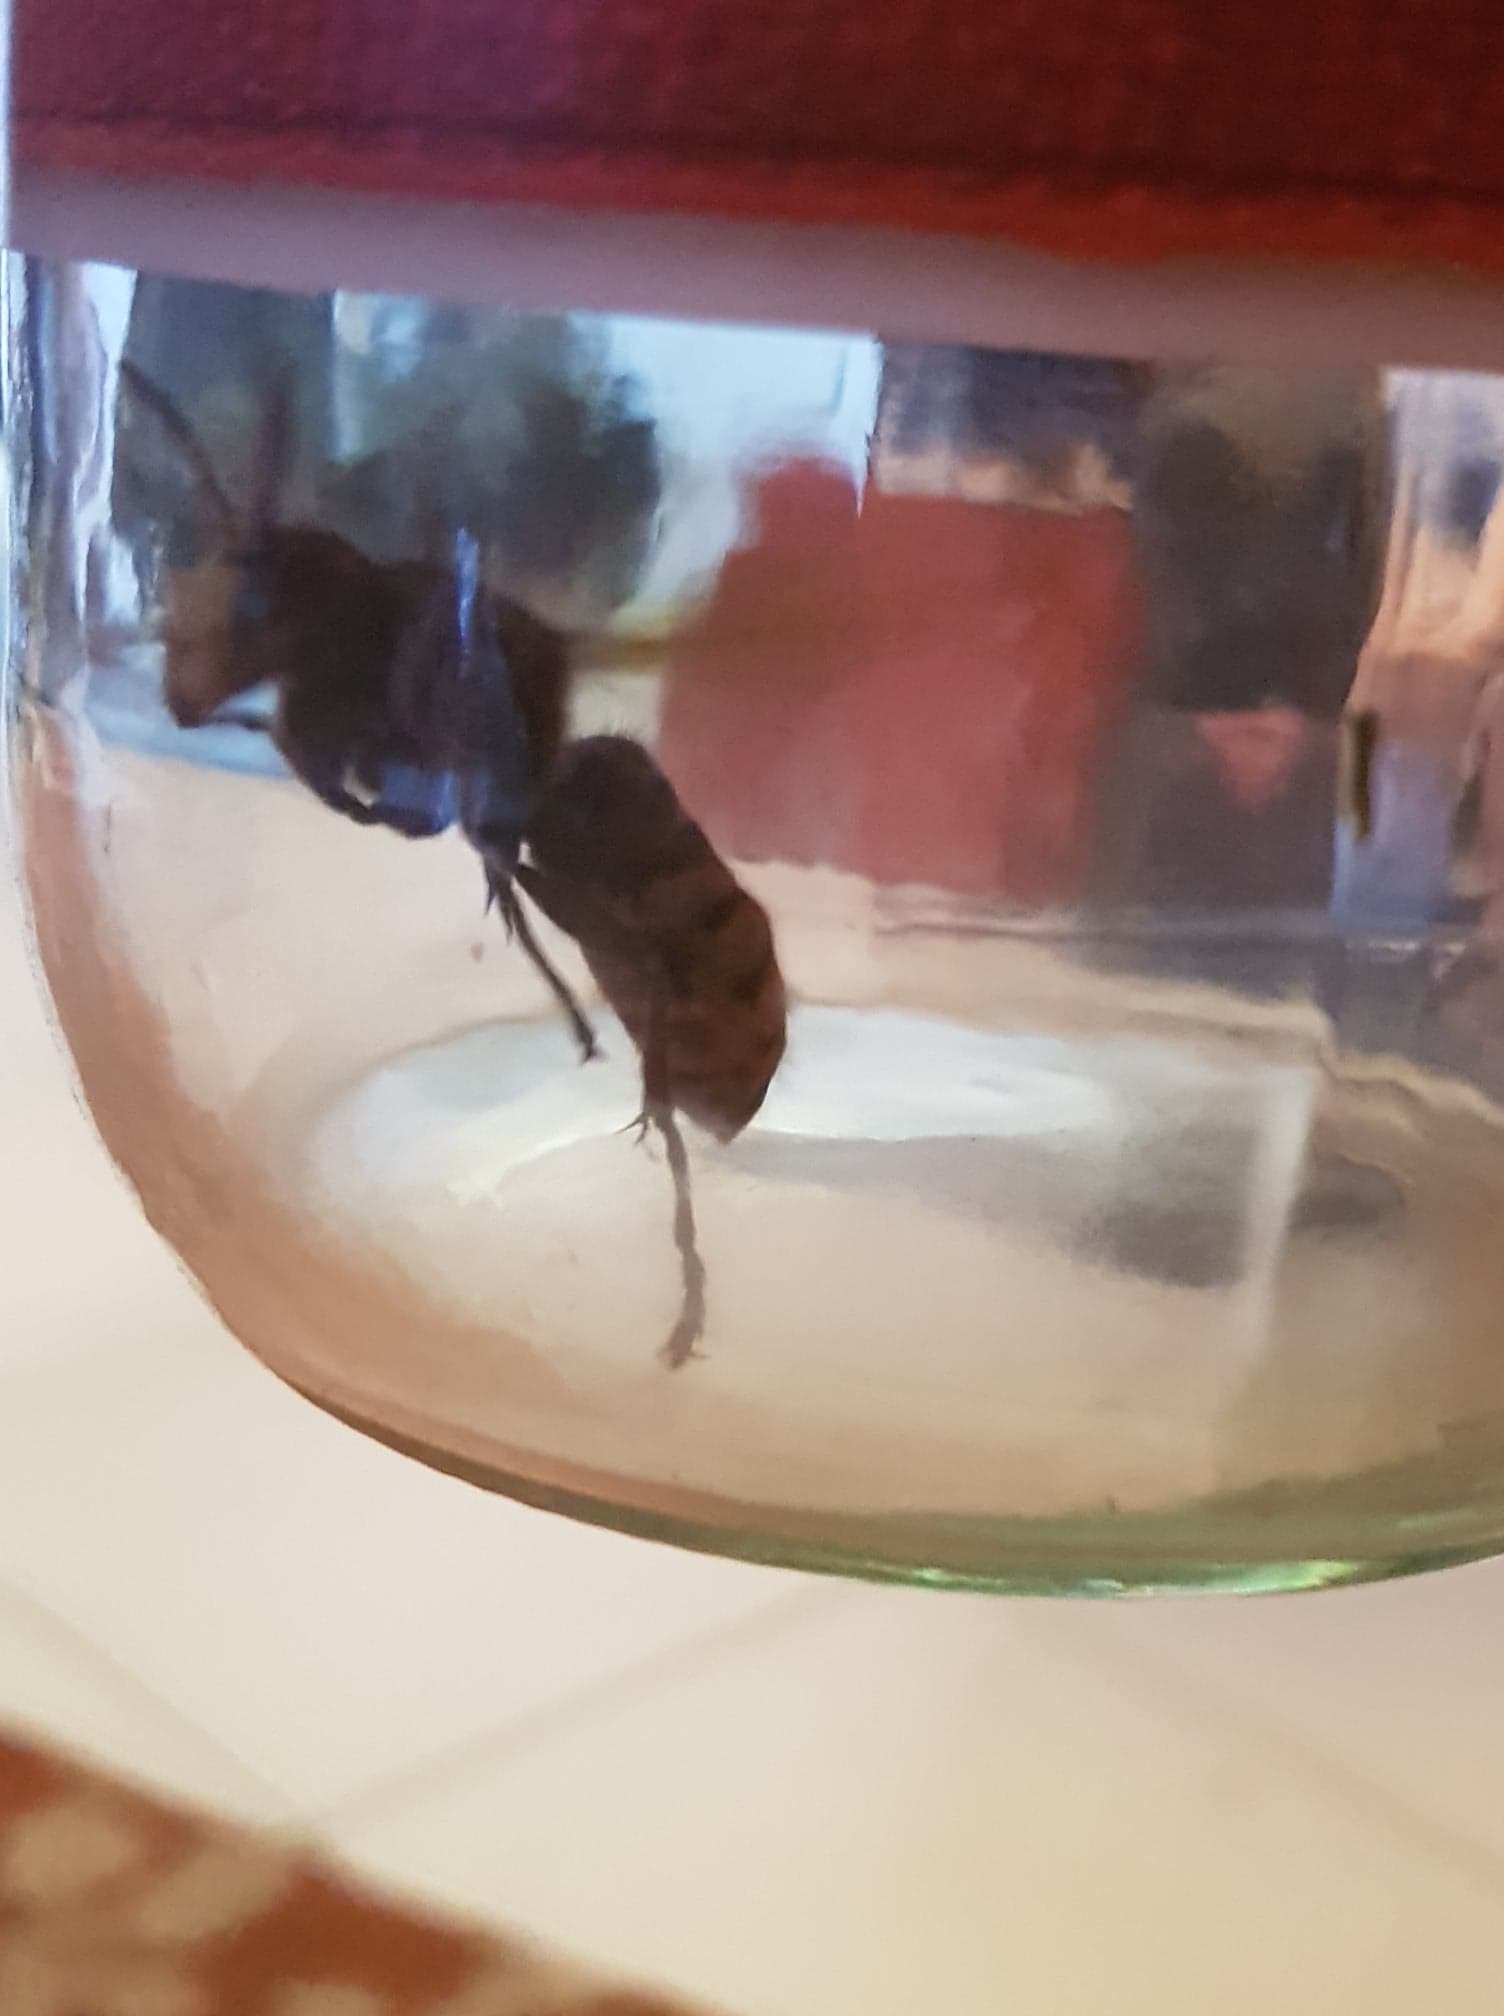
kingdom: Animalia
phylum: Arthropoda
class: Insecta
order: Hymenoptera
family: Vespidae
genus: Vespa
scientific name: Vespa crabro
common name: Hornet
